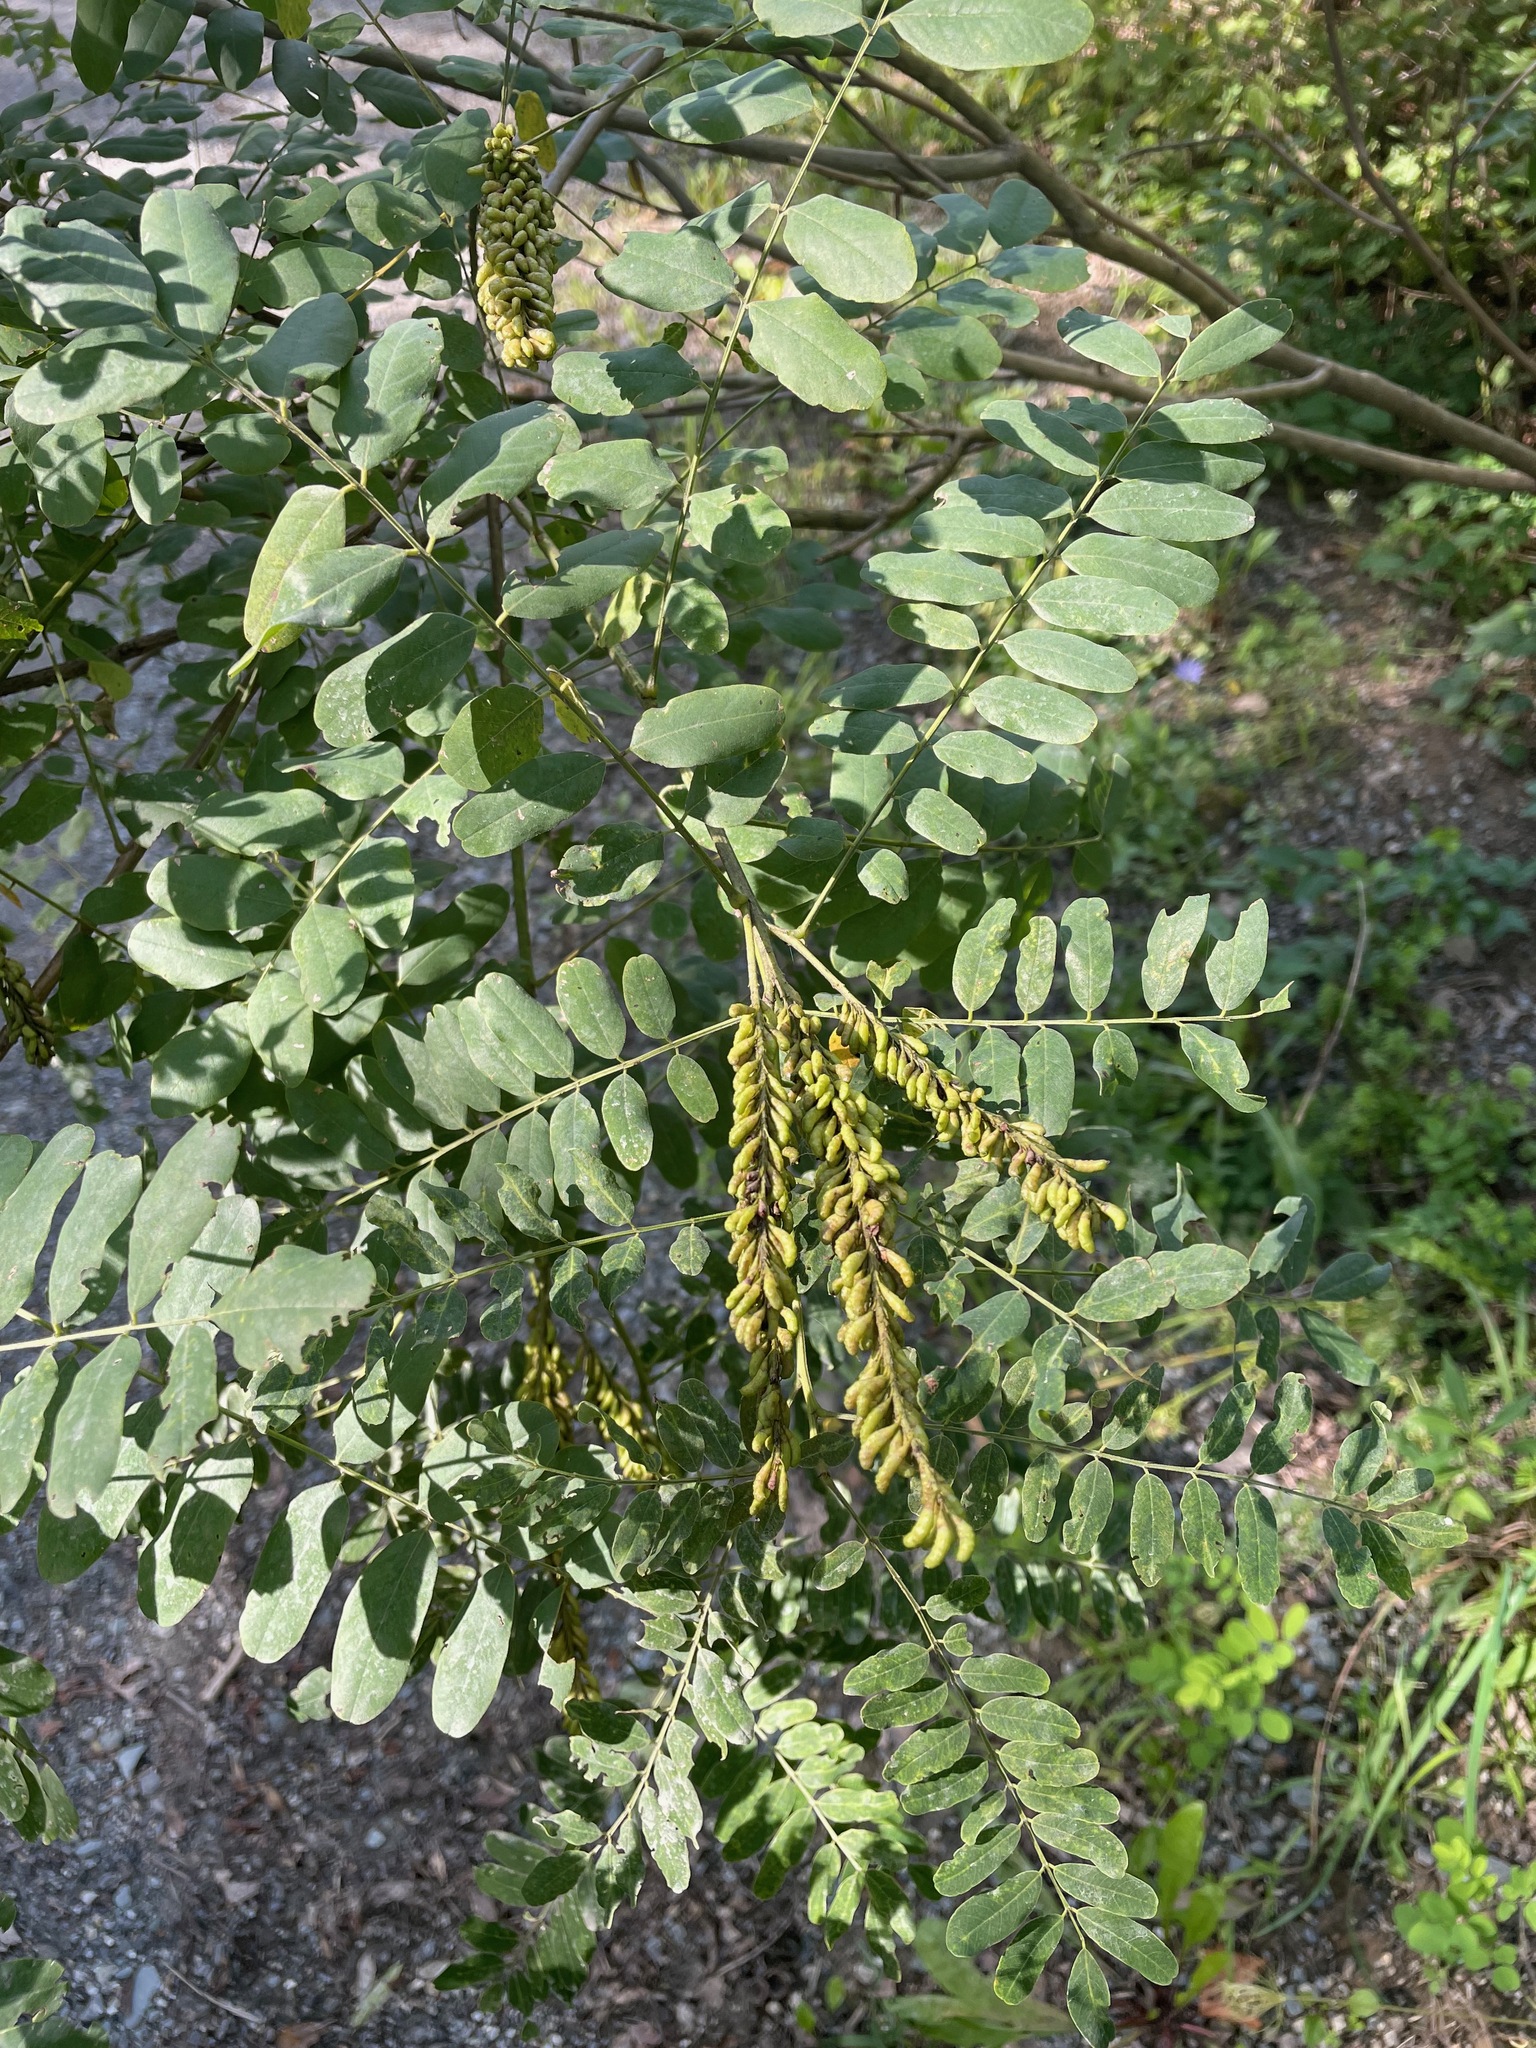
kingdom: Plantae
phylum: Tracheophyta
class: Magnoliopsida
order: Fabales
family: Fabaceae
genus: Amorpha
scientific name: Amorpha fruticosa
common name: False indigo
